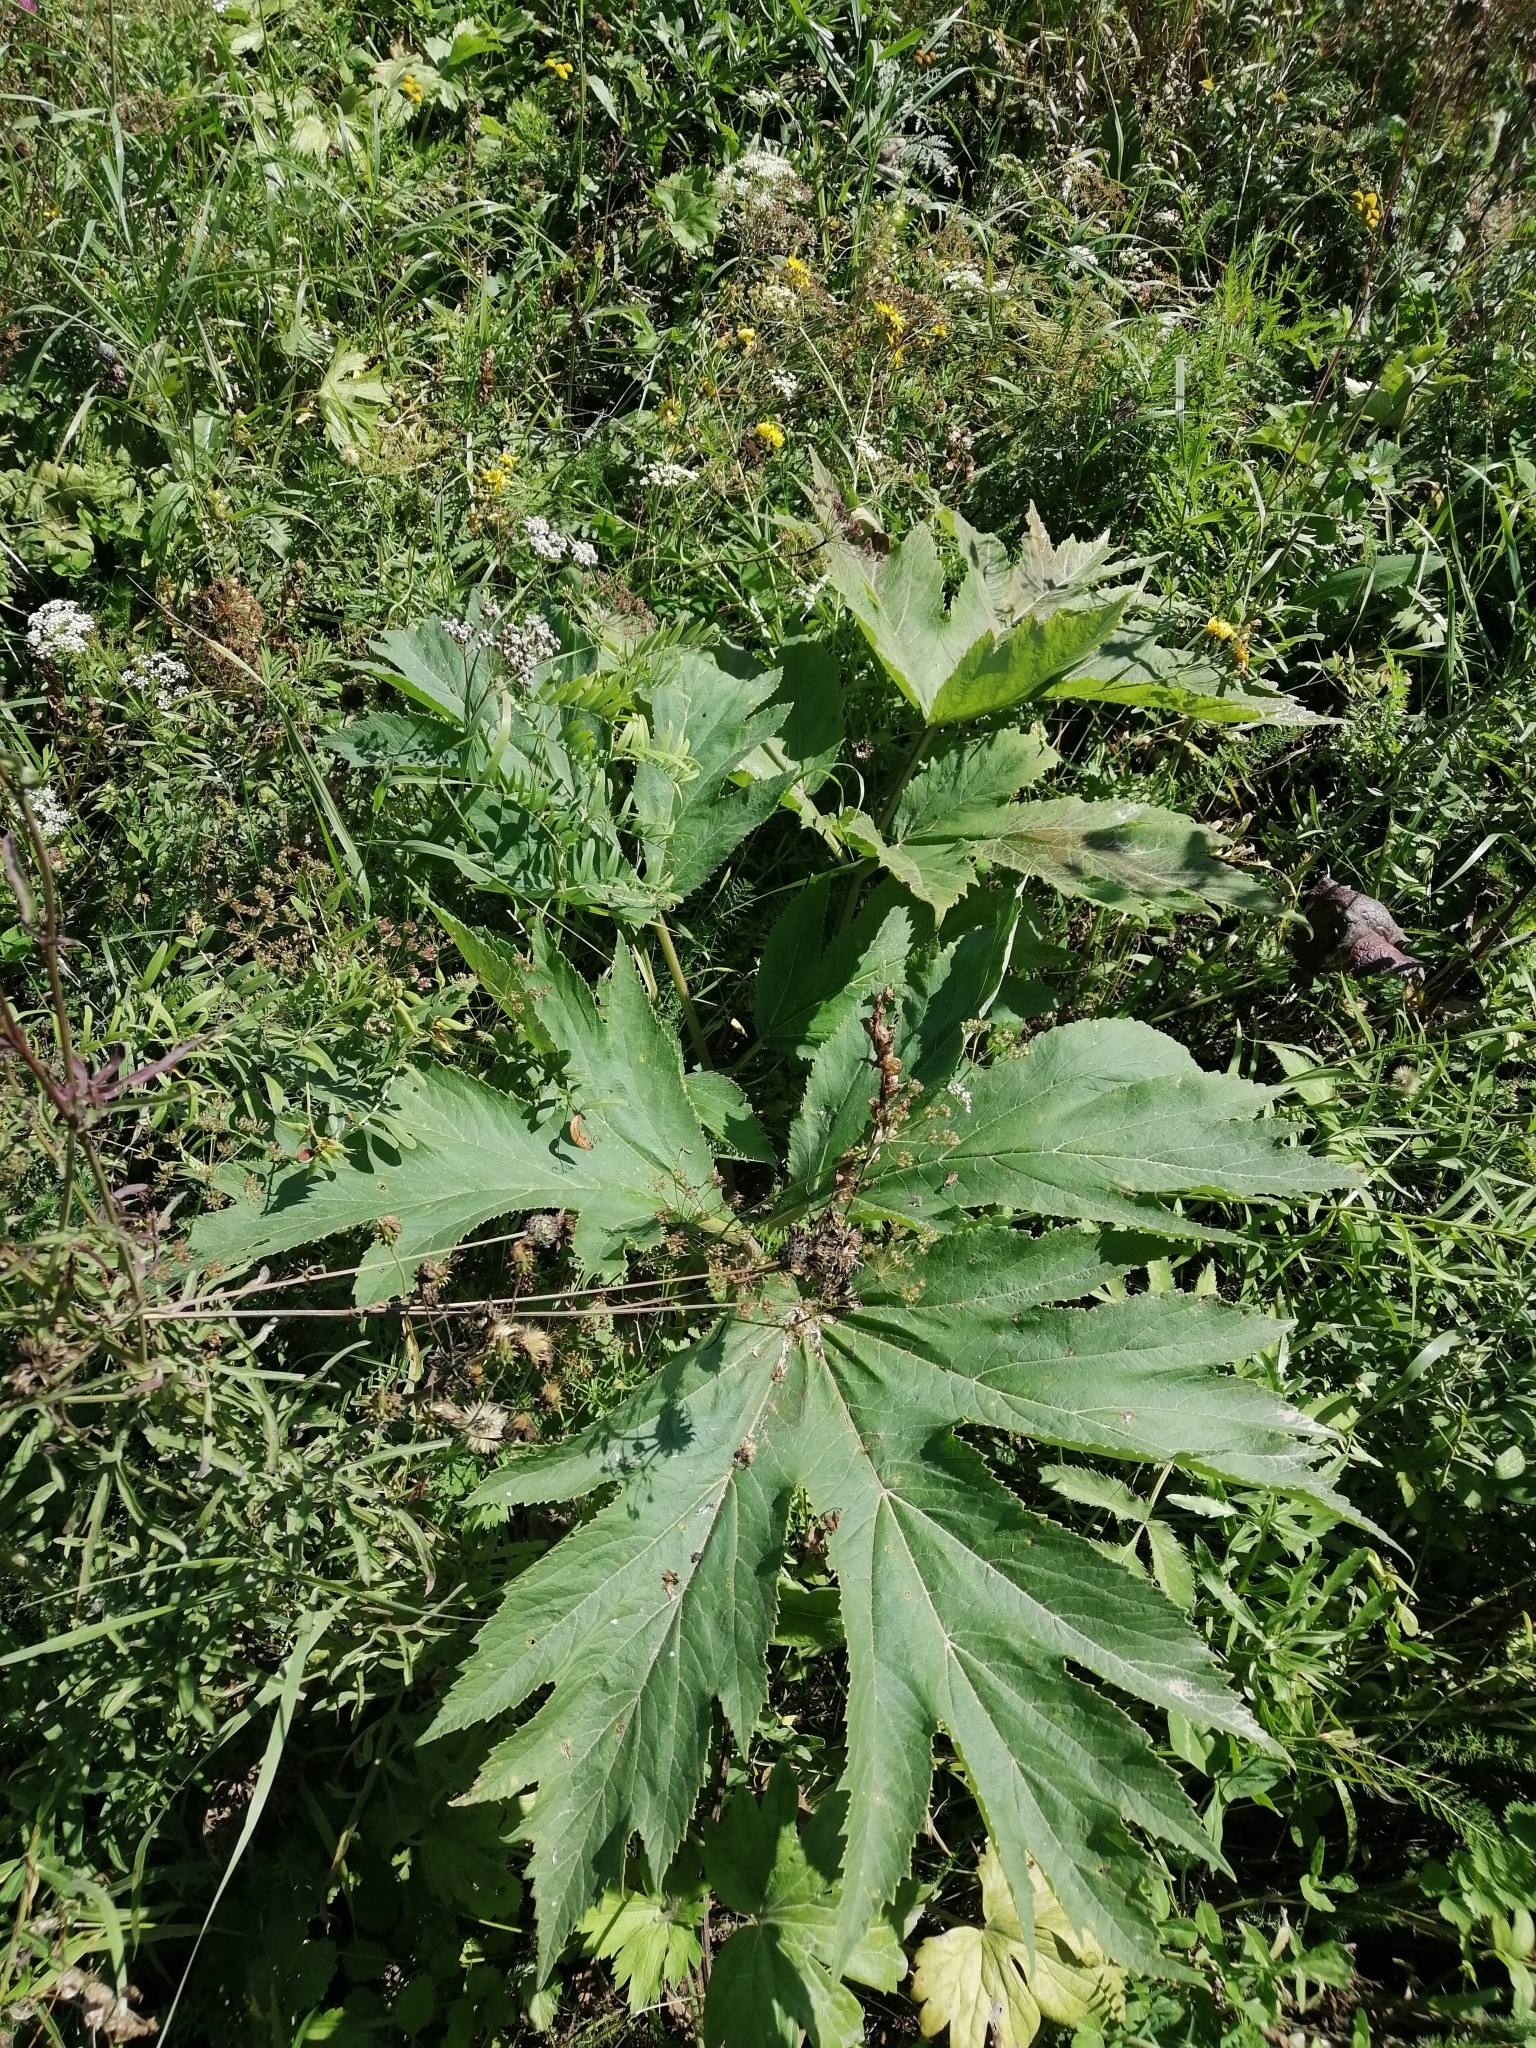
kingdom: Plantae
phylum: Tracheophyta
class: Magnoliopsida
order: Apiales
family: Apiaceae
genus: Heracleum
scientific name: Heracleum dissectum
